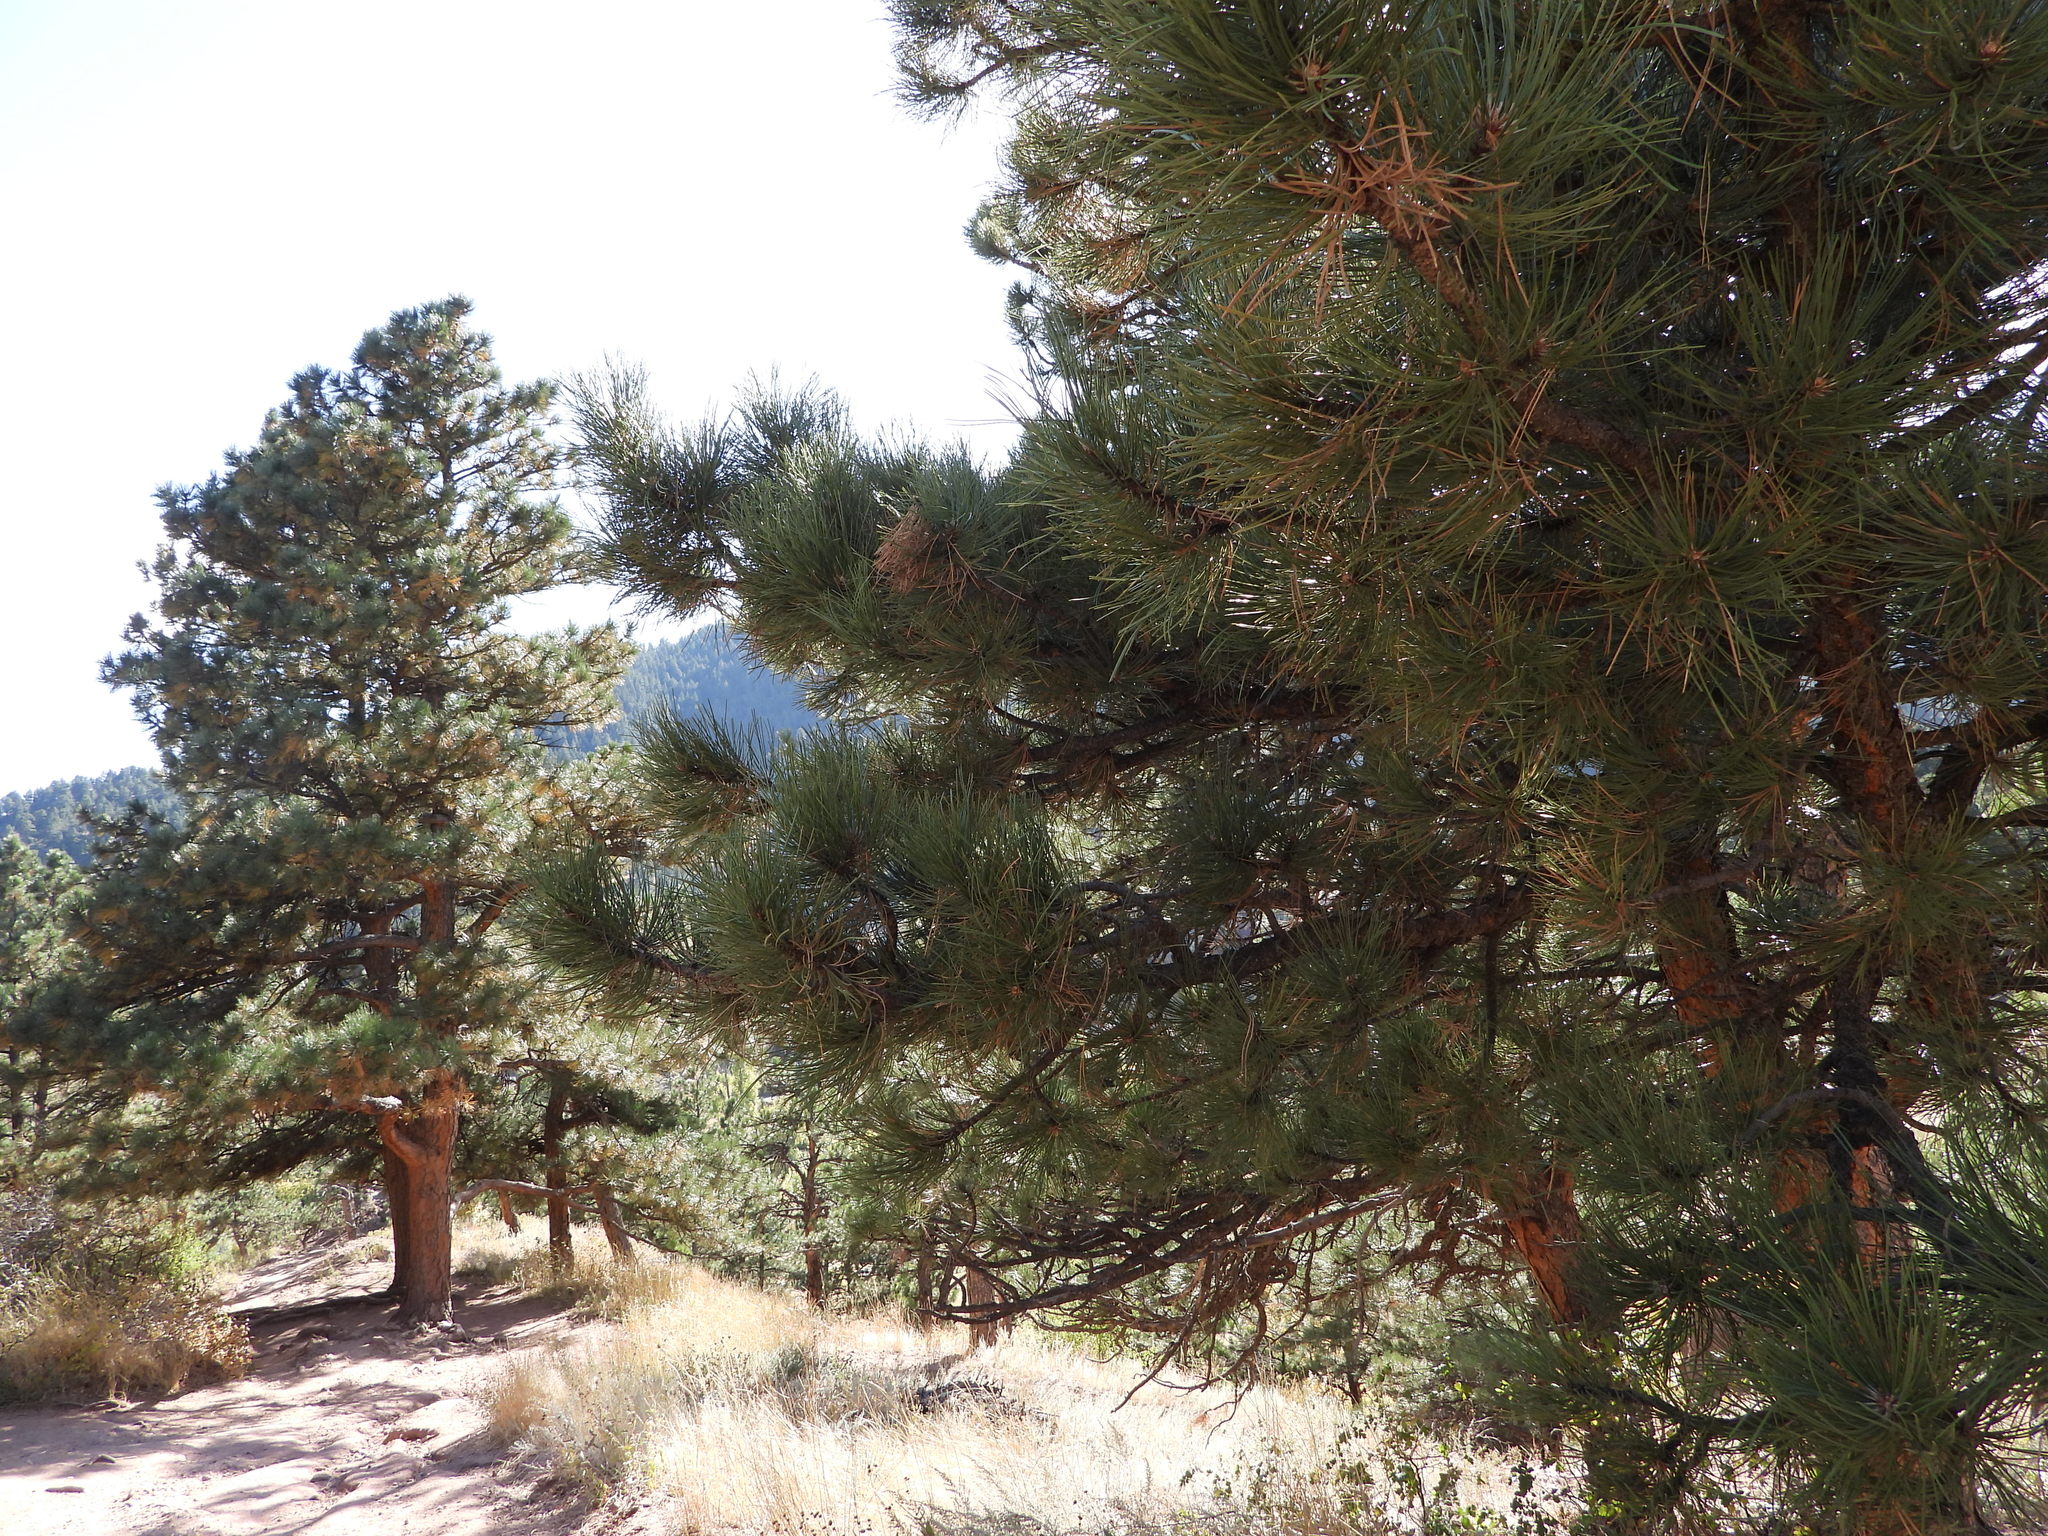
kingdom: Plantae
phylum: Tracheophyta
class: Pinopsida
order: Pinales
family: Pinaceae
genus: Pinus
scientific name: Pinus ponderosa
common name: Western yellow-pine
